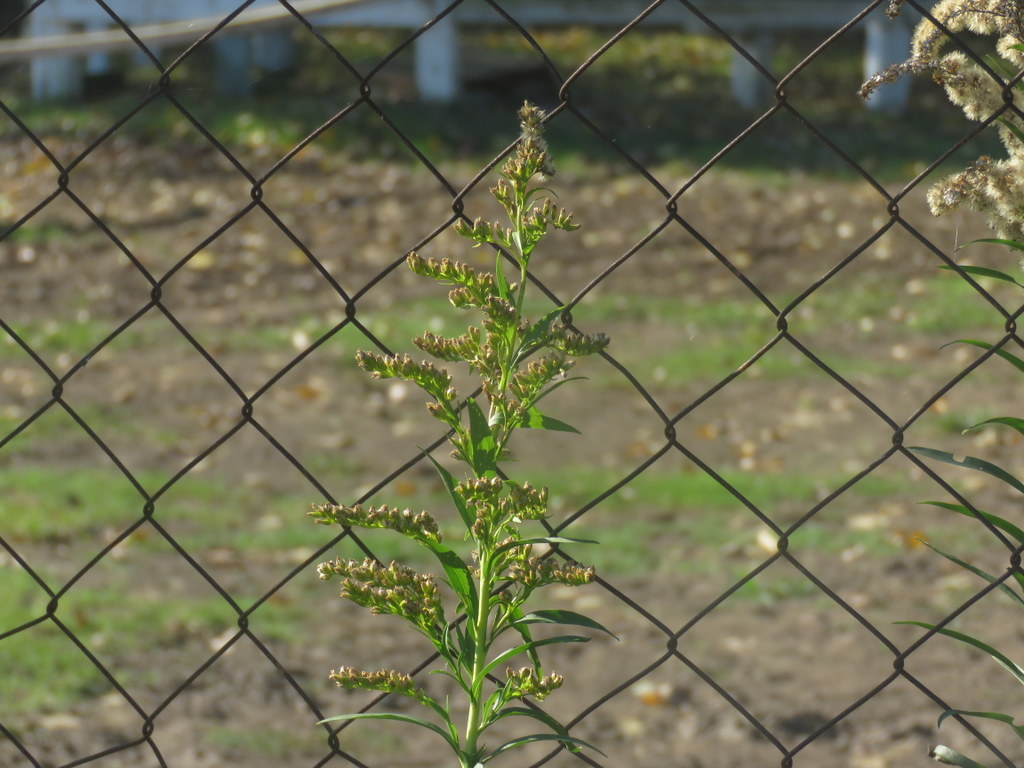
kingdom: Plantae
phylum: Tracheophyta
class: Magnoliopsida
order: Asterales
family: Asteraceae
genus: Solidago
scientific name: Solidago chilensis
